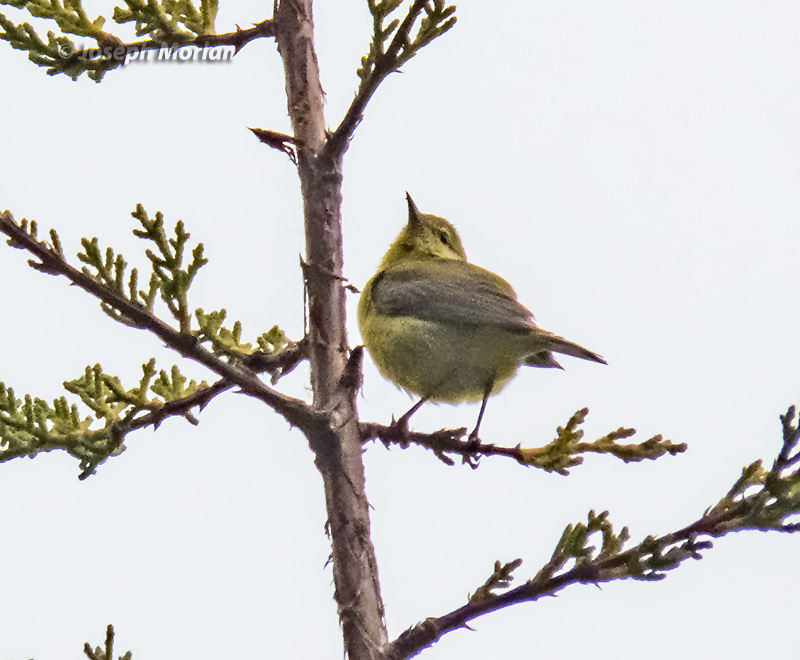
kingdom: Animalia
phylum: Chordata
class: Aves
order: Passeriformes
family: Parulidae
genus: Leiothlypis
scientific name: Leiothlypis celata
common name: Orange-crowned warbler
